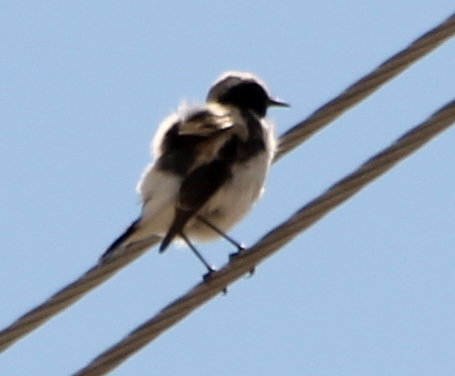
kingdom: Animalia
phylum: Chordata
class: Aves
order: Passeriformes
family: Muscicapidae
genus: Oenanthe
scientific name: Oenanthe deserti
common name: Desert wheatear
